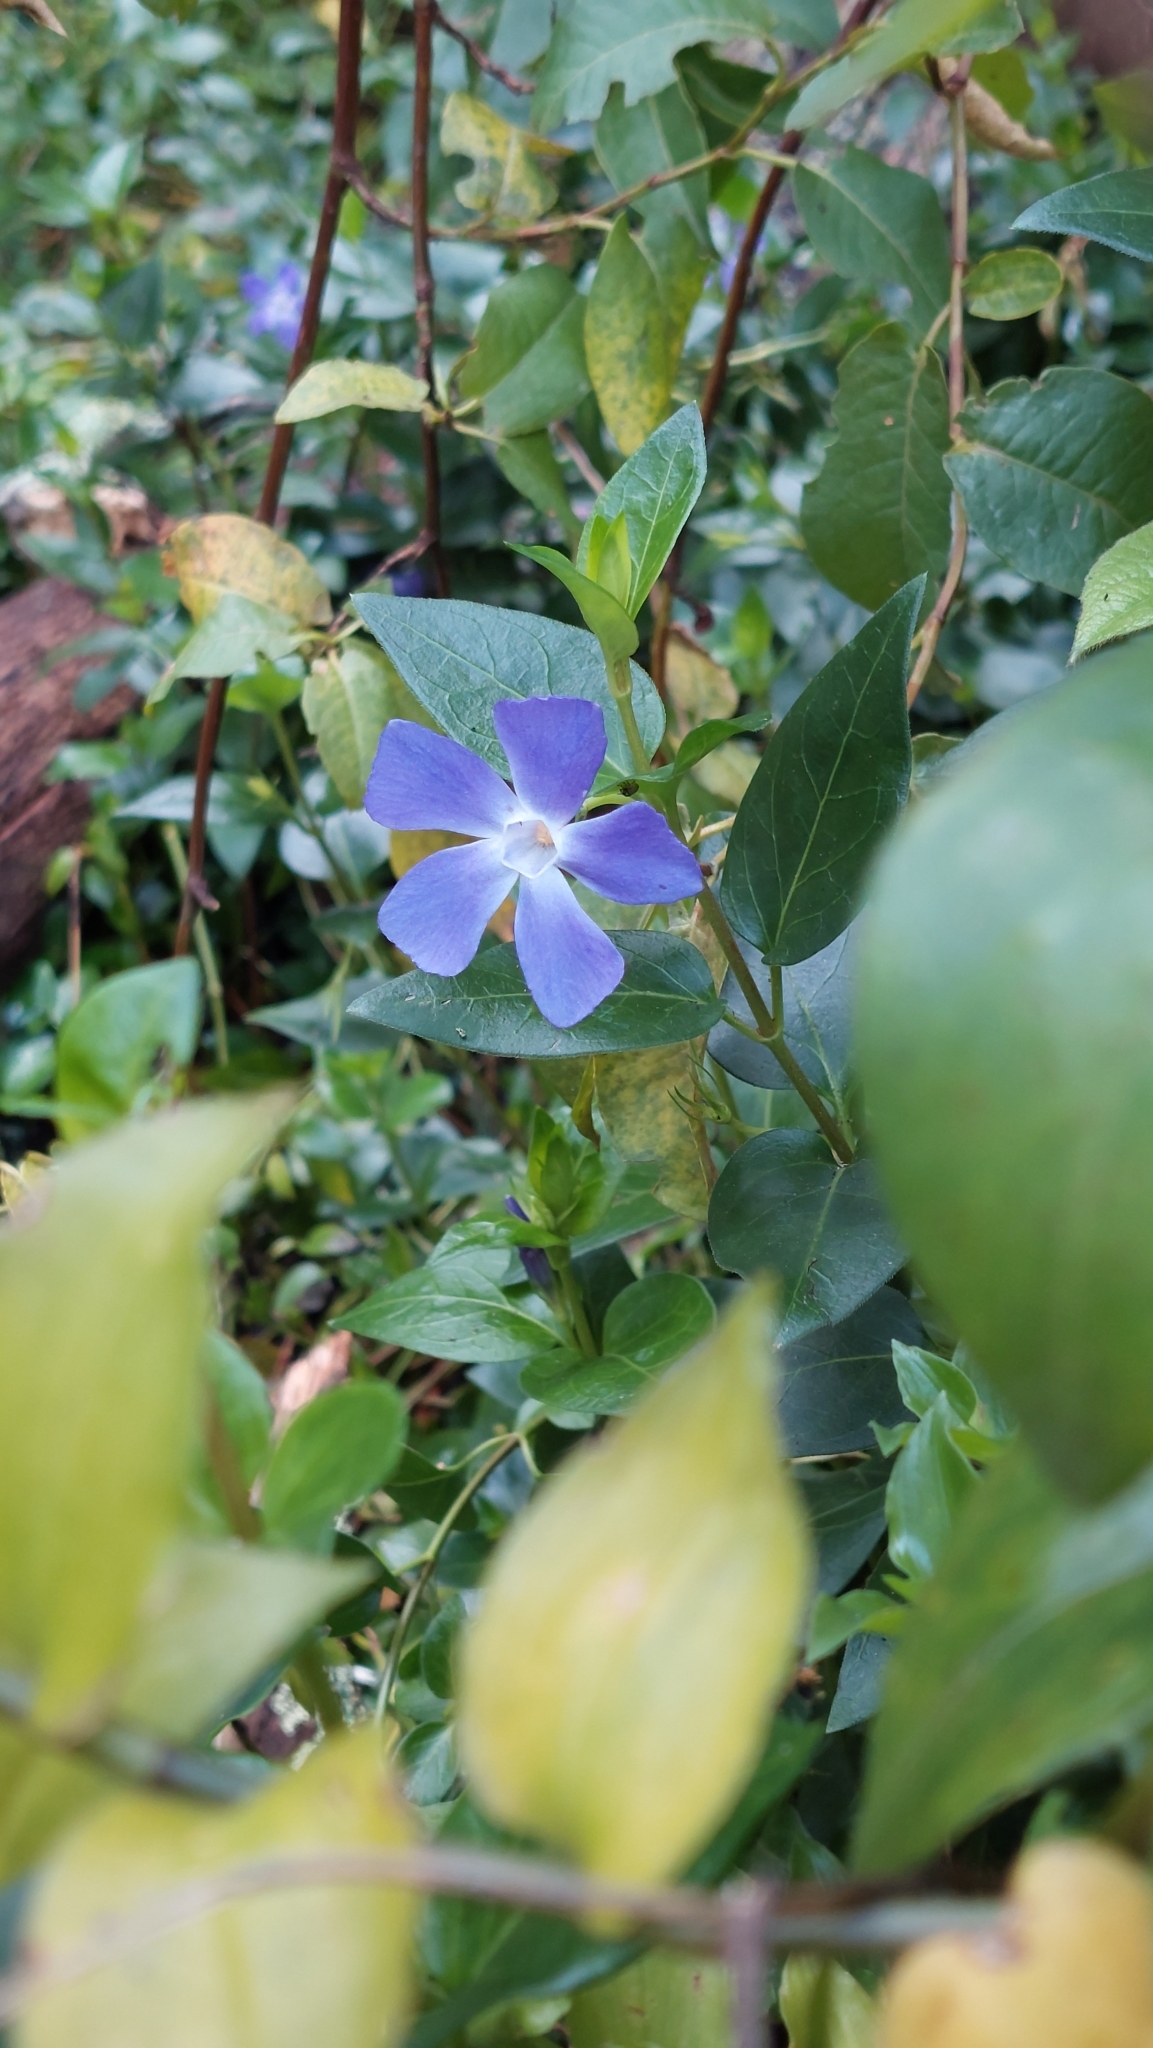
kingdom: Plantae
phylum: Tracheophyta
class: Magnoliopsida
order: Gentianales
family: Apocynaceae
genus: Vinca
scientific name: Vinca major
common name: Greater periwinkle
